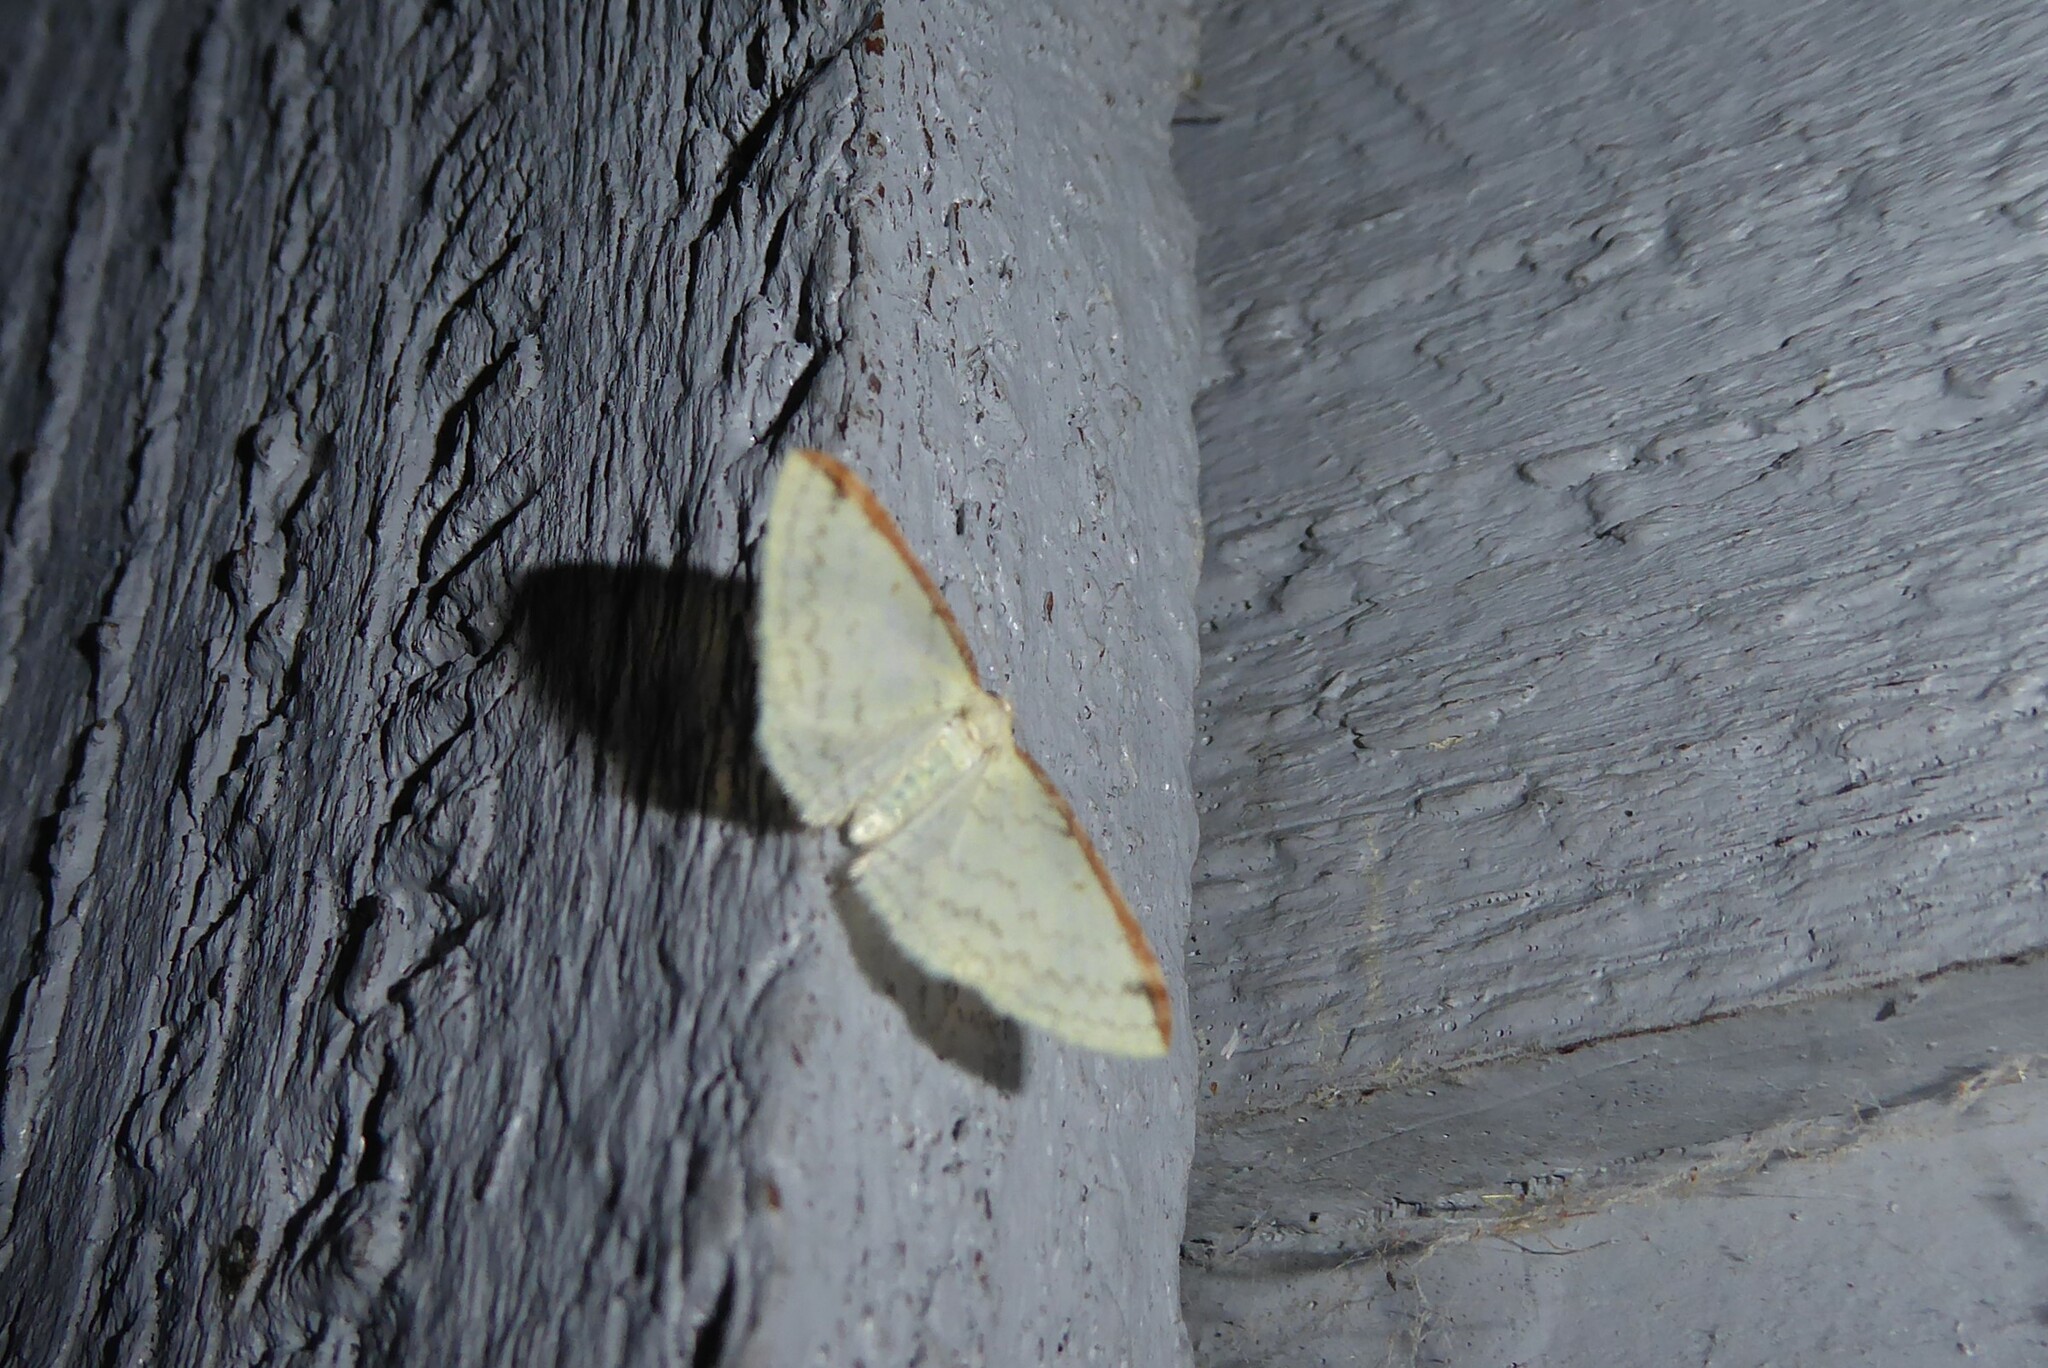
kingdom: Animalia
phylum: Arthropoda
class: Insecta
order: Lepidoptera
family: Geometridae
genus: Epiphryne
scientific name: Epiphryne undosata
